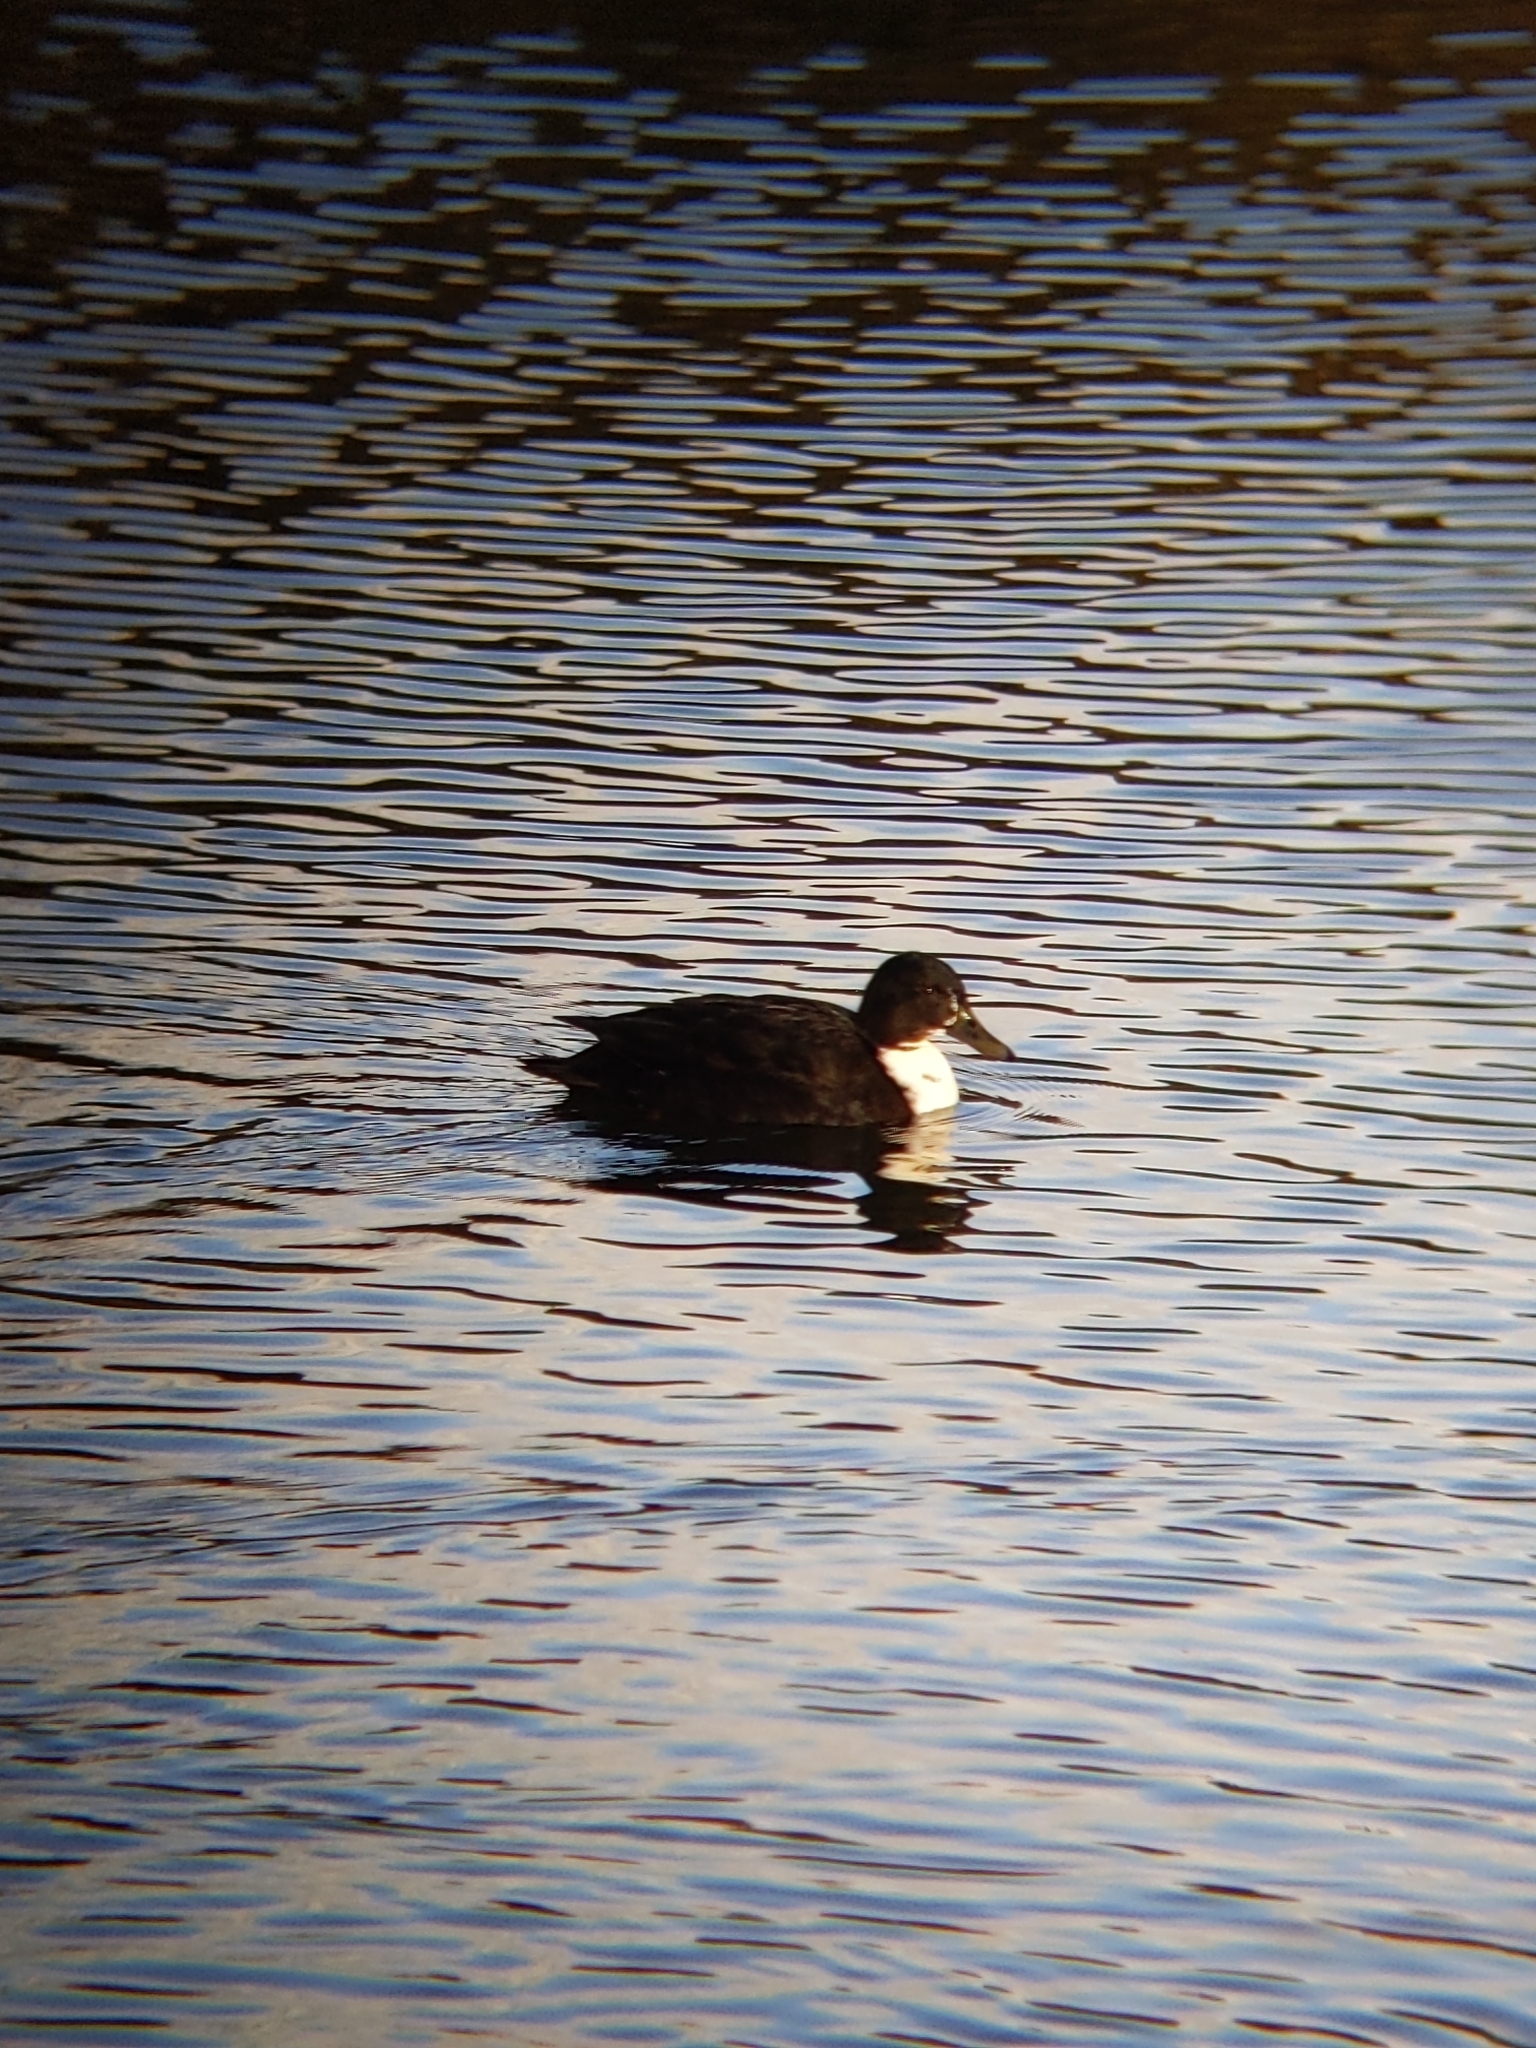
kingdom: Animalia
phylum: Chordata
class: Aves
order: Anseriformes
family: Anatidae
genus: Anas
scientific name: Anas platyrhynchos
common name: Mallard
